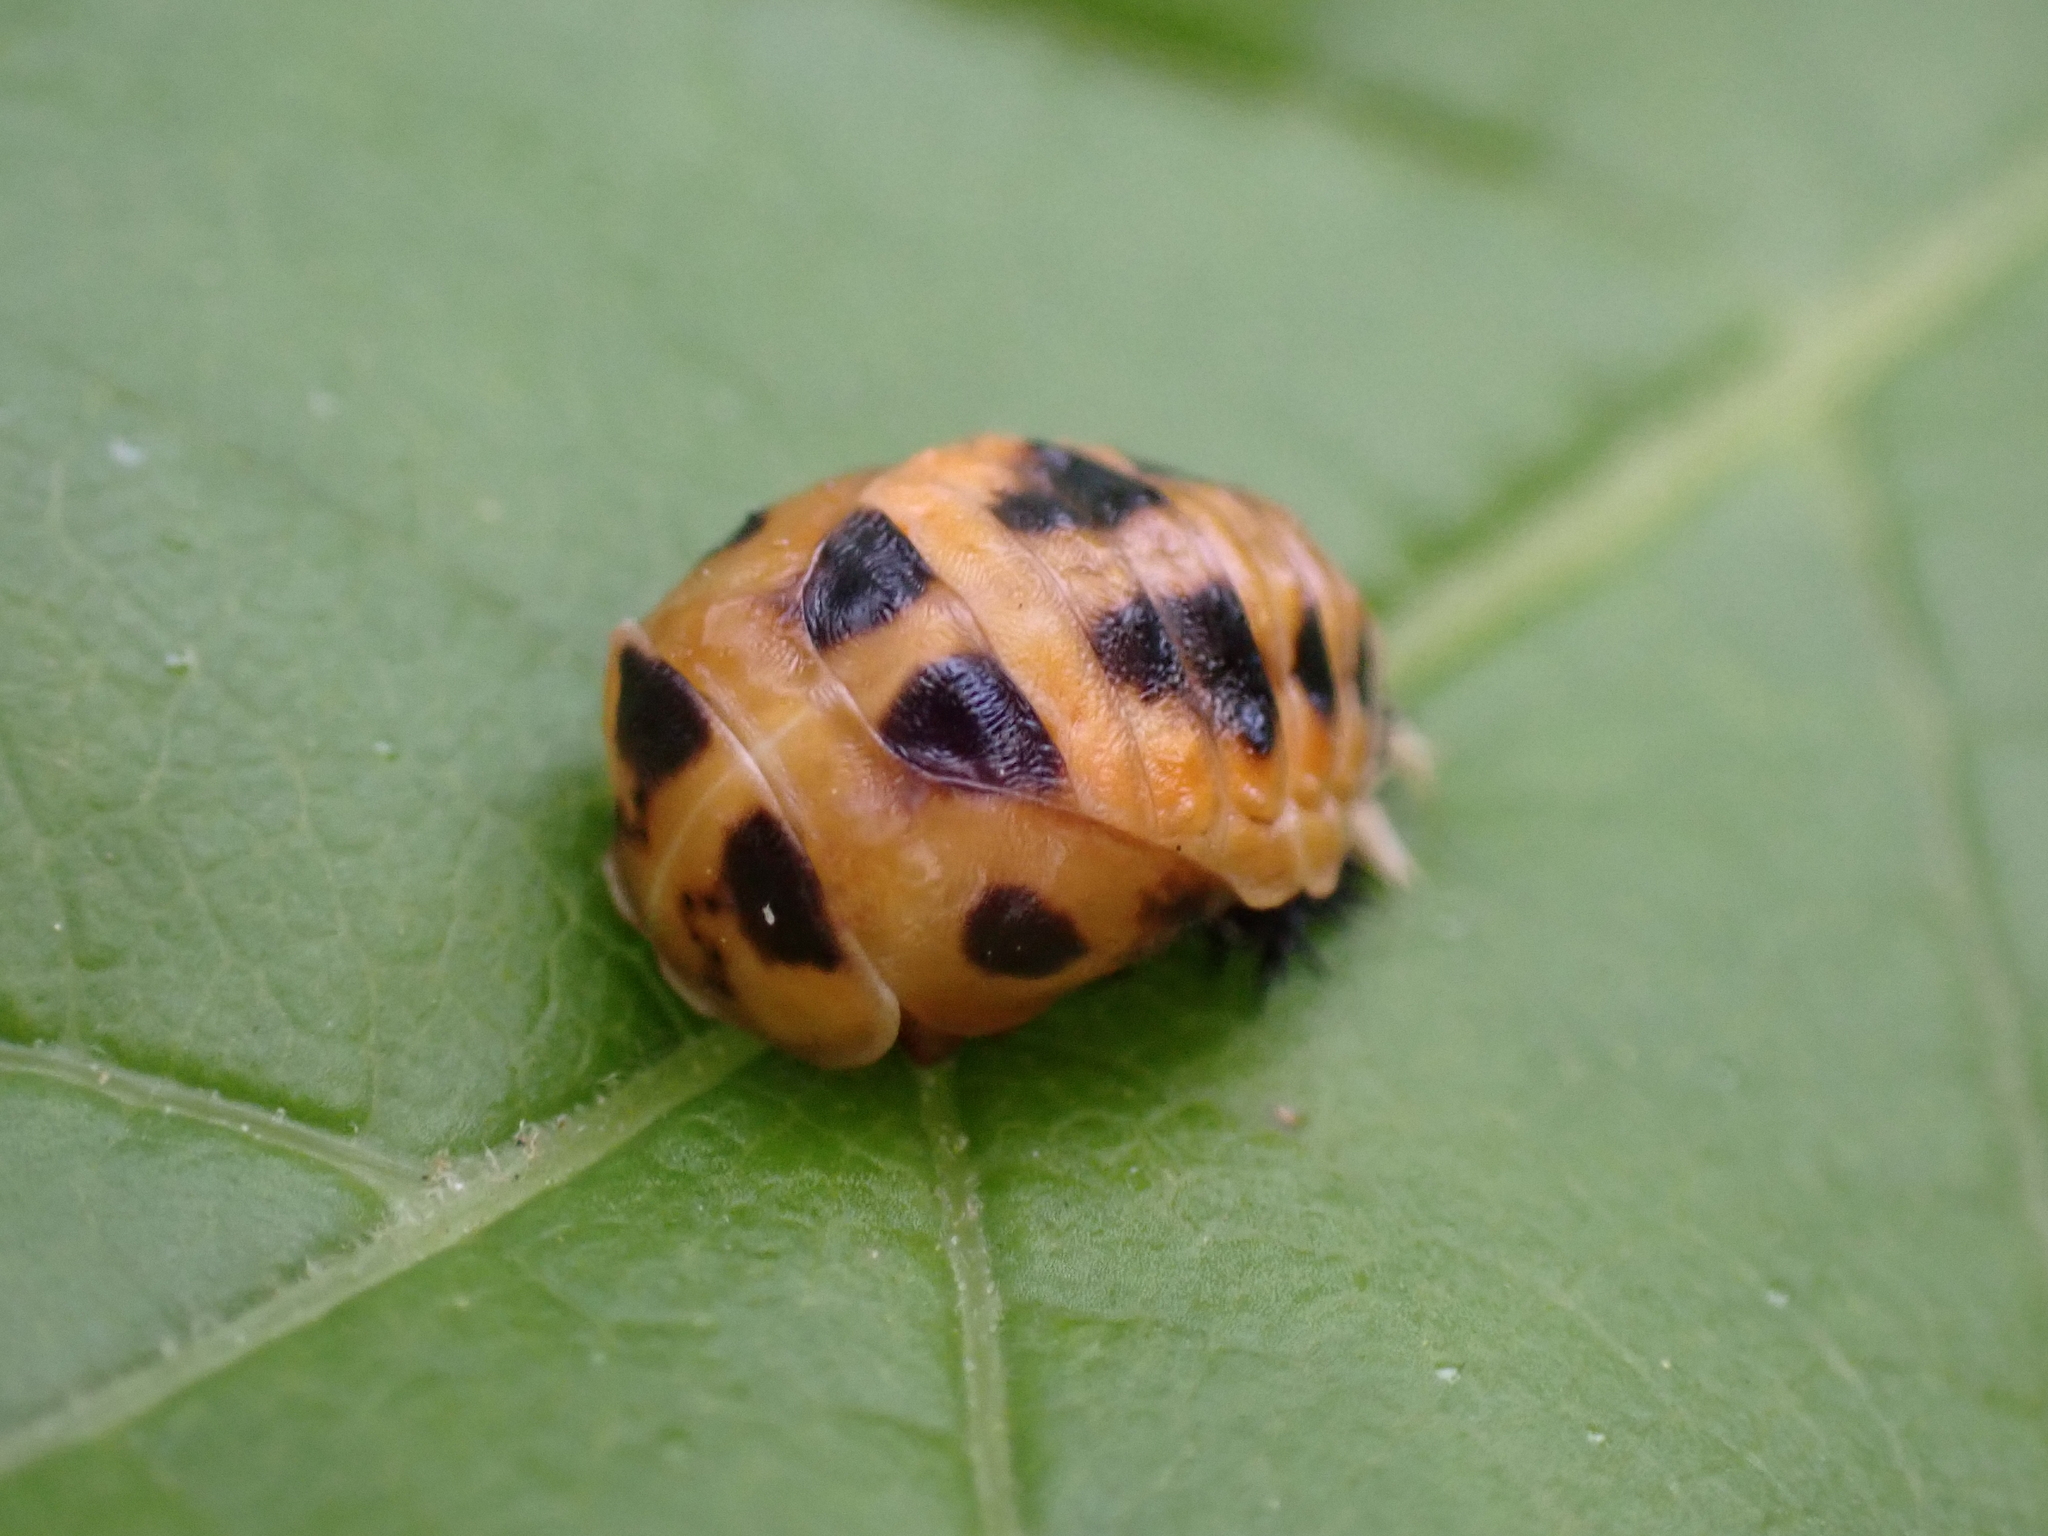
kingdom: Animalia
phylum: Arthropoda
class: Insecta
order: Coleoptera
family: Coccinellidae
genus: Harmonia
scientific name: Harmonia axyridis
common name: Harlequin ladybird
